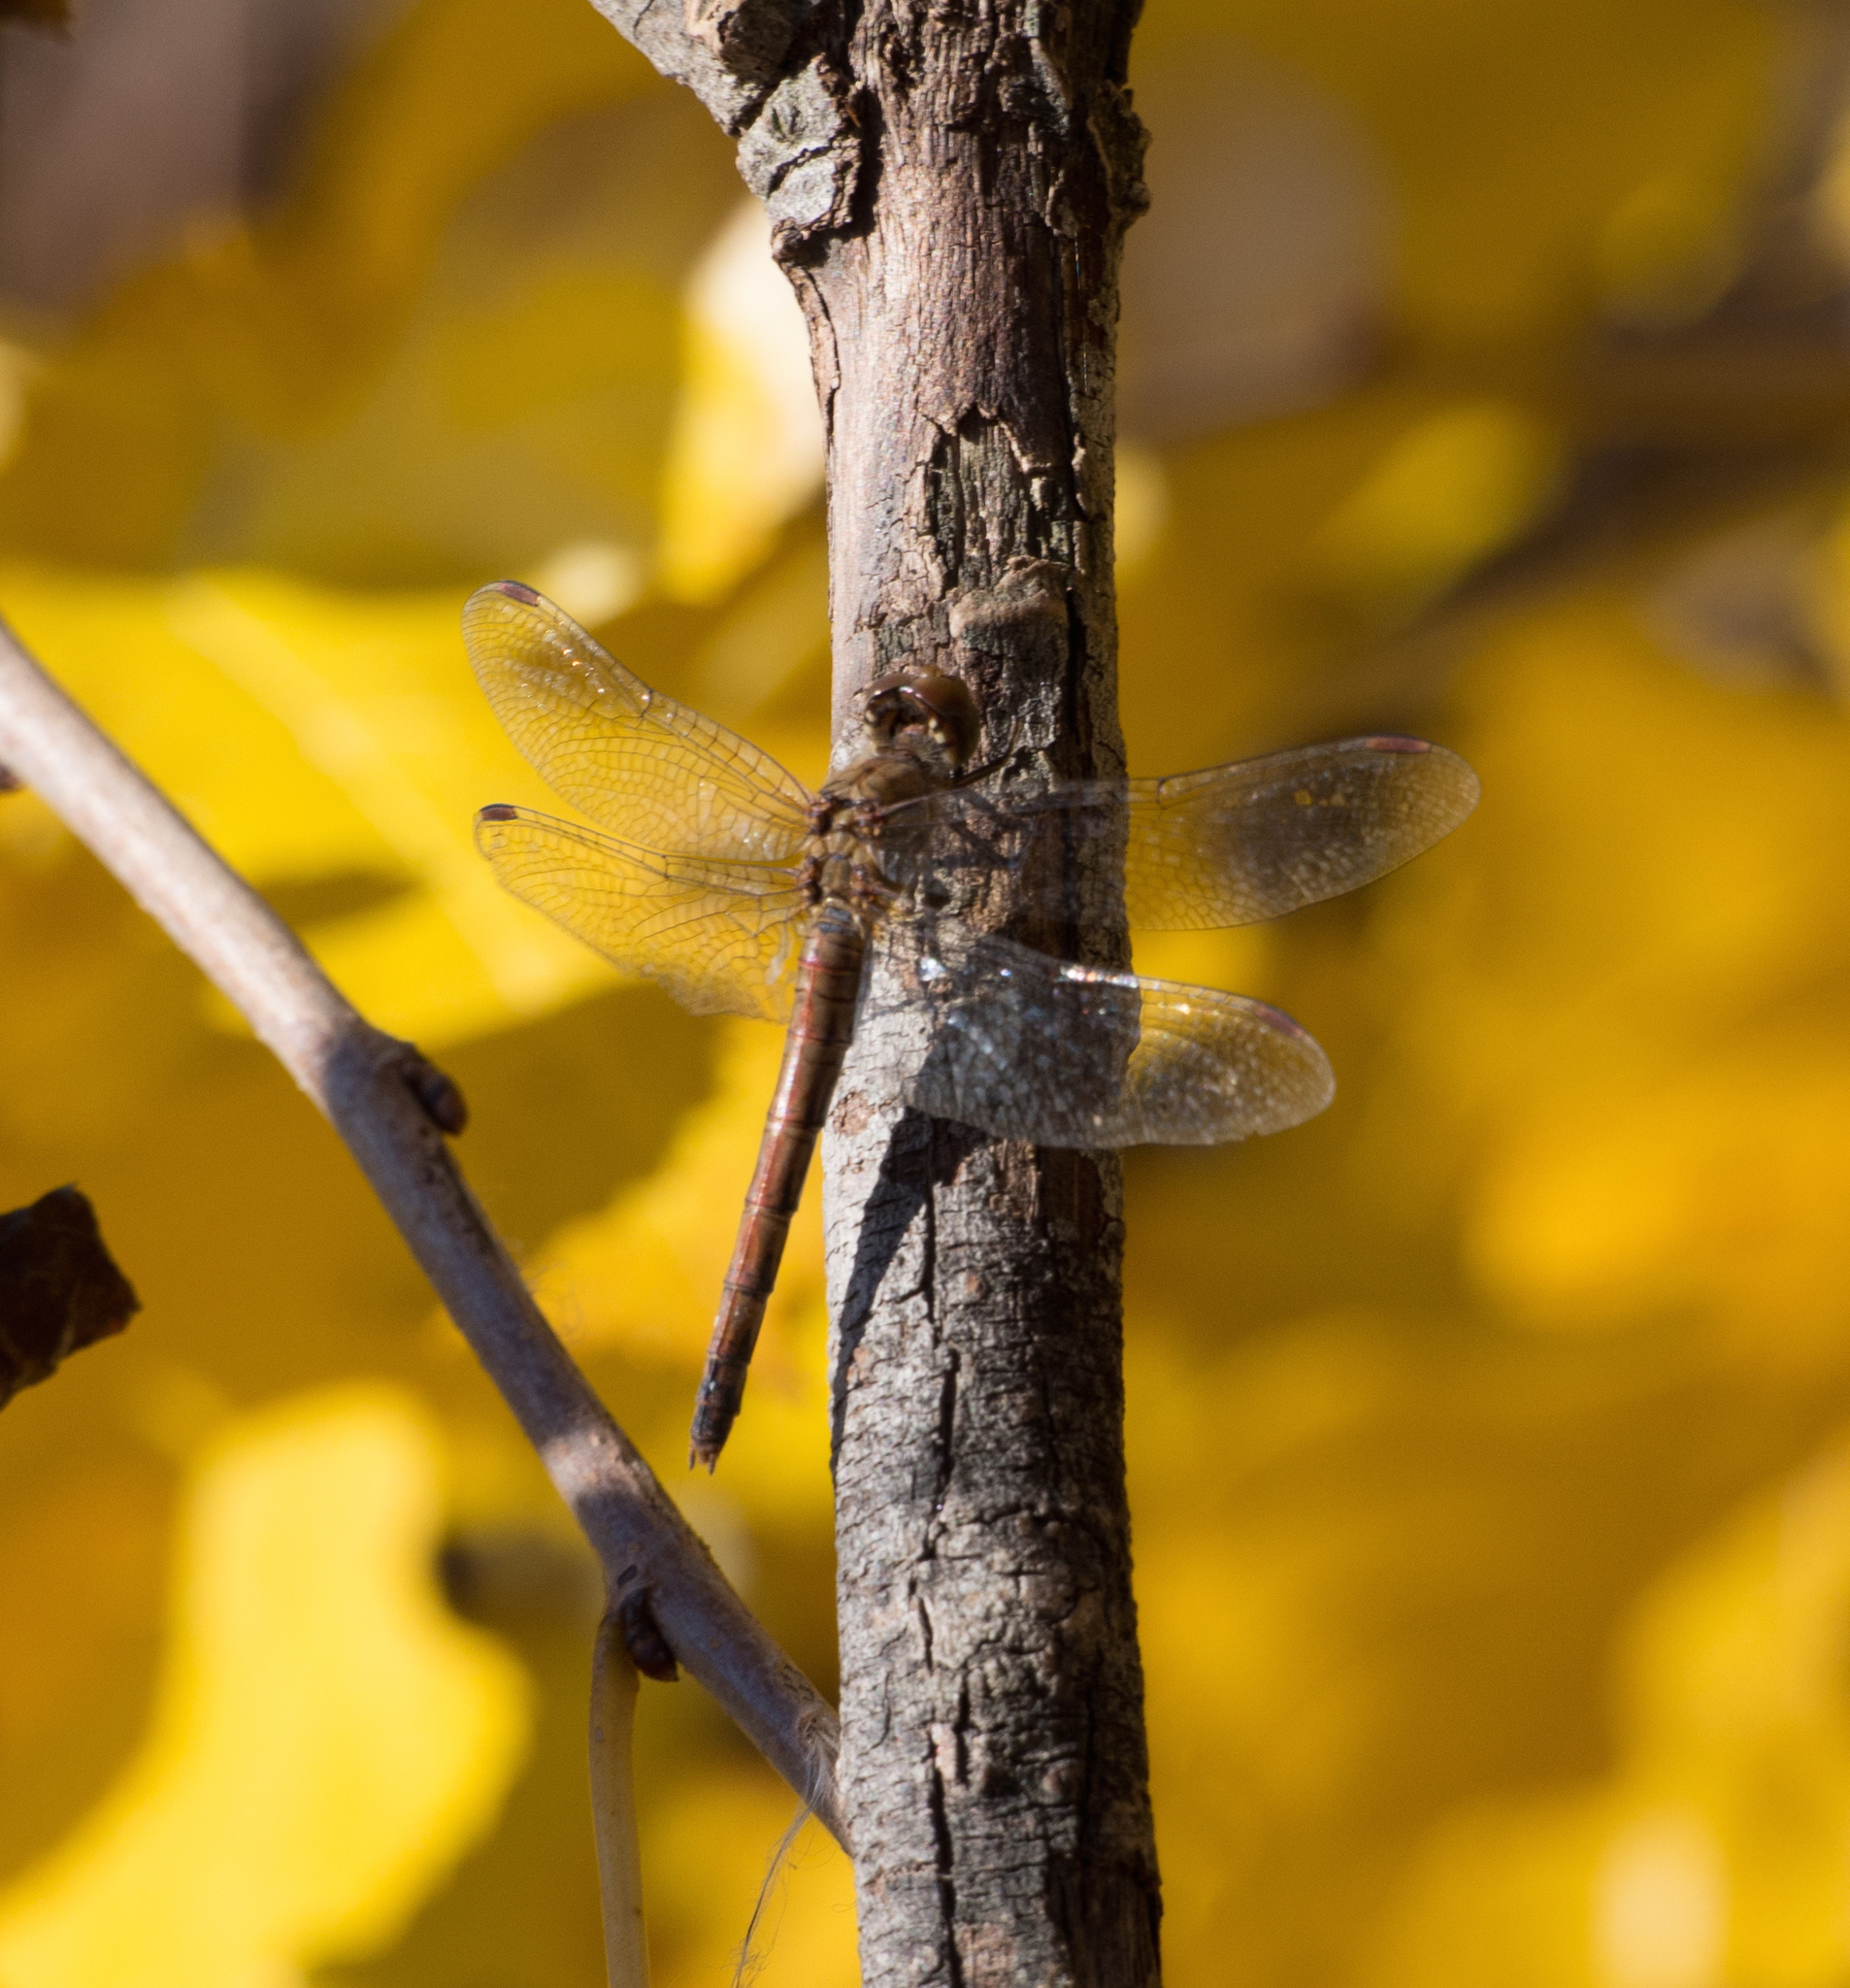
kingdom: Animalia
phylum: Arthropoda
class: Insecta
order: Odonata
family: Libellulidae
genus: Sympetrum
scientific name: Sympetrum striolatum
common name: Common darter
